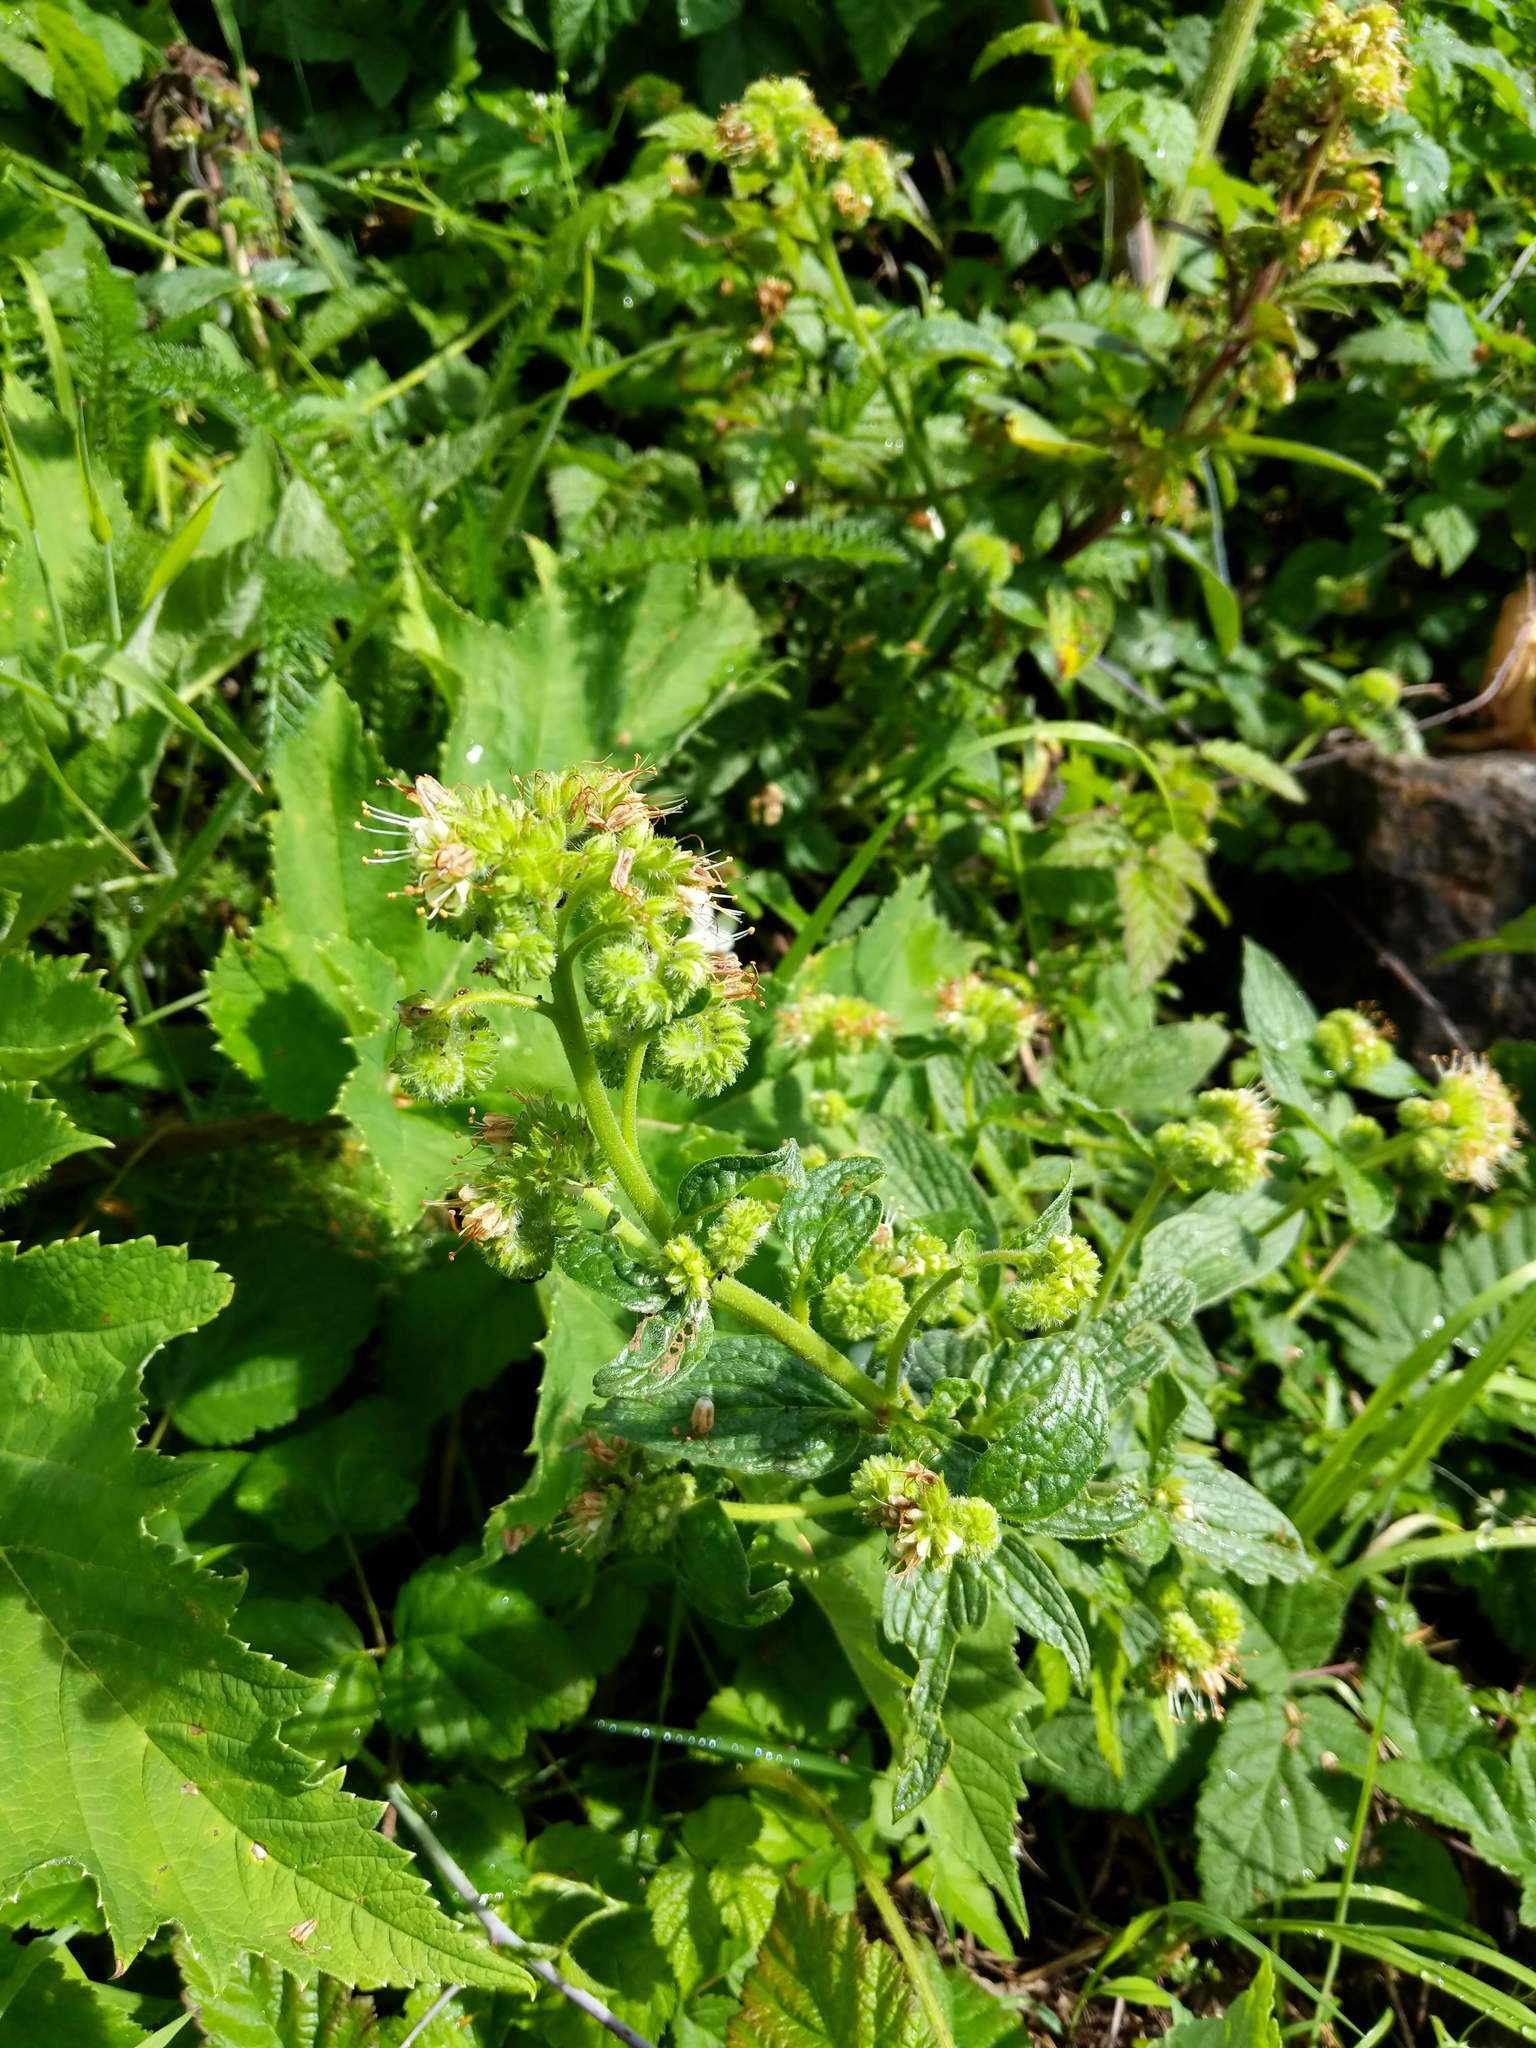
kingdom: Plantae
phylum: Tracheophyta
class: Magnoliopsida
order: Boraginales
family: Hydrophyllaceae
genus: Phacelia
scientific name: Phacelia nemoralis
